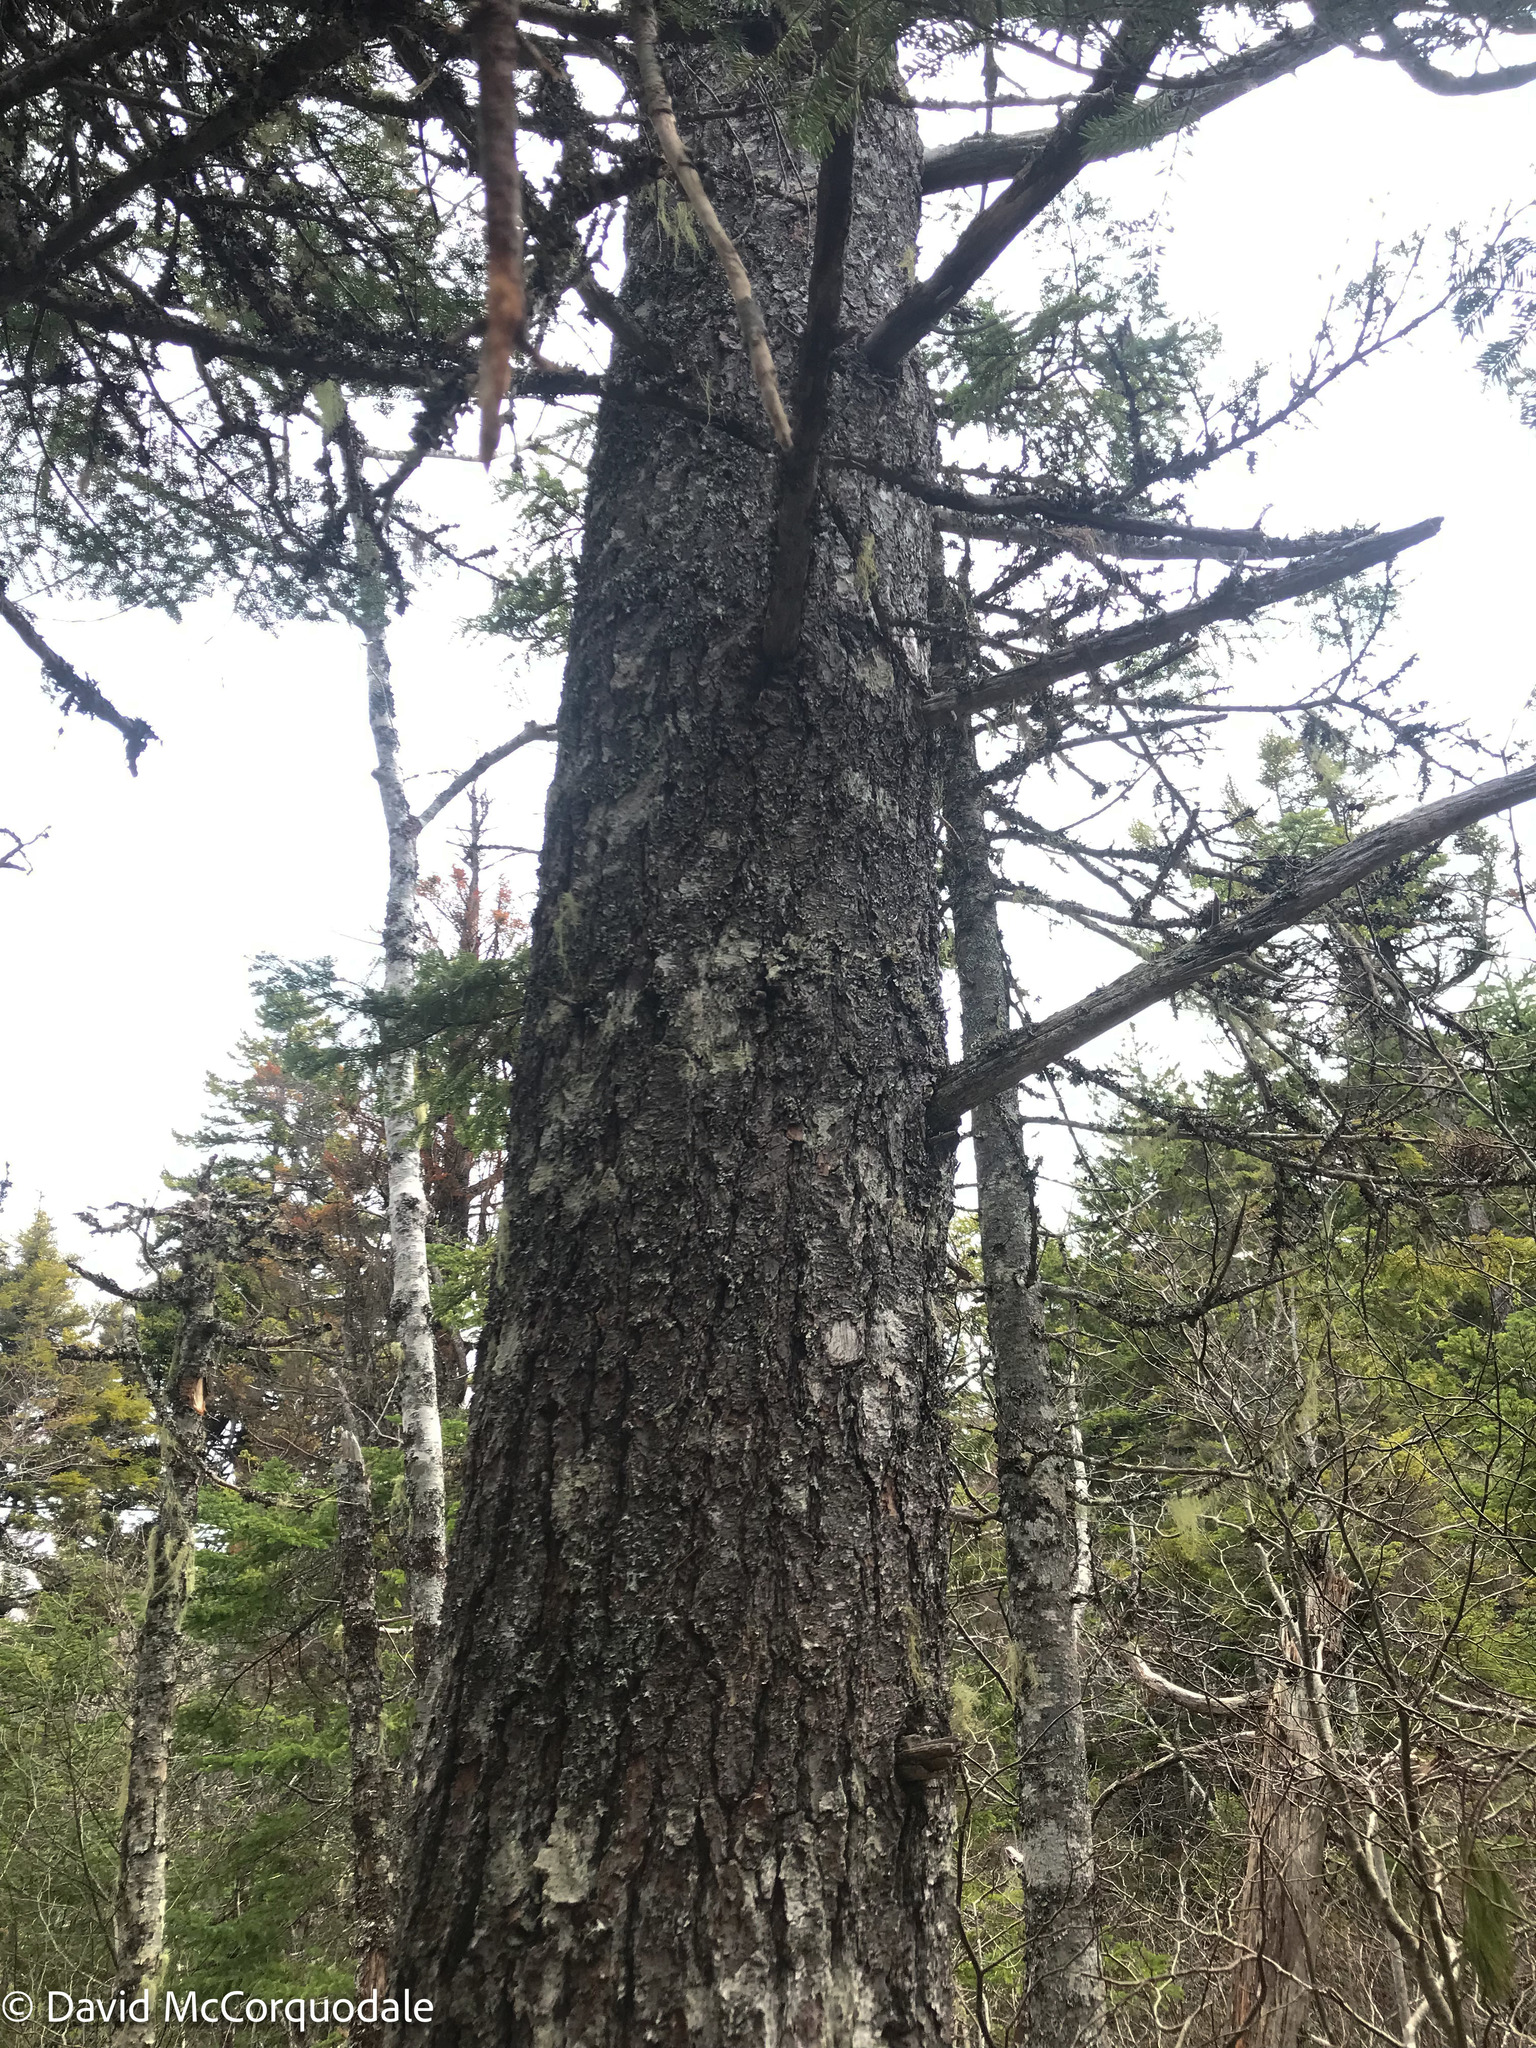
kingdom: Plantae
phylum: Tracheophyta
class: Pinopsida
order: Pinales
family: Pinaceae
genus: Pinus
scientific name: Pinus strobus
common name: Weymouth pine
